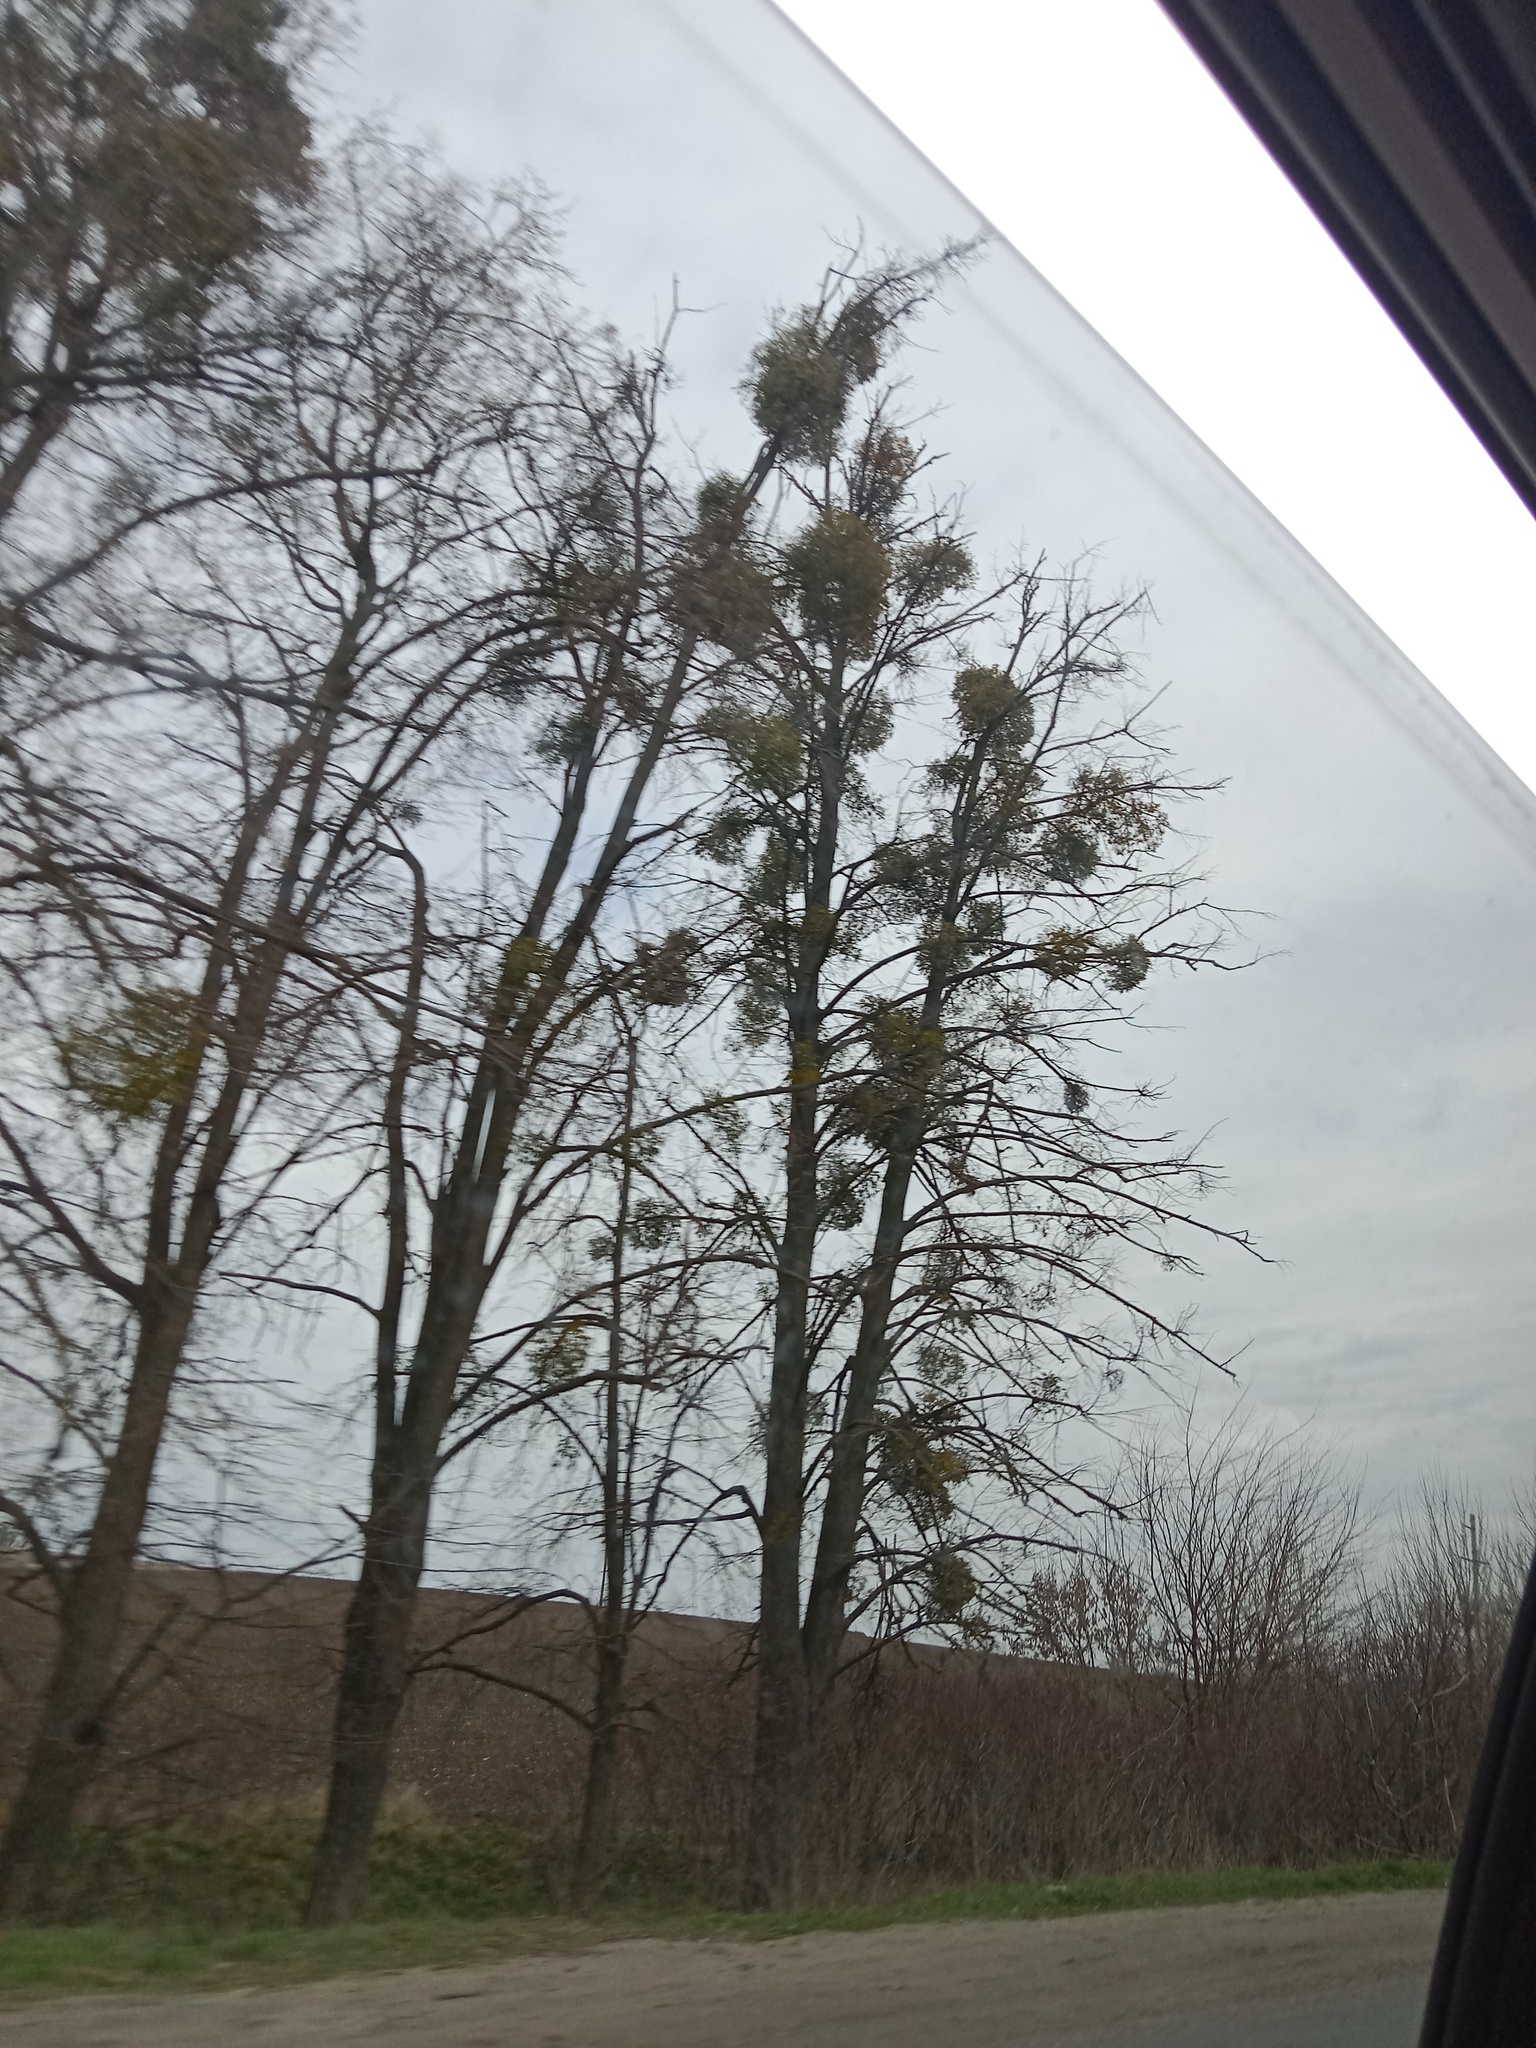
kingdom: Plantae
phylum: Tracheophyta
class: Magnoliopsida
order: Santalales
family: Viscaceae
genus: Viscum
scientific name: Viscum album
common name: Mistletoe
